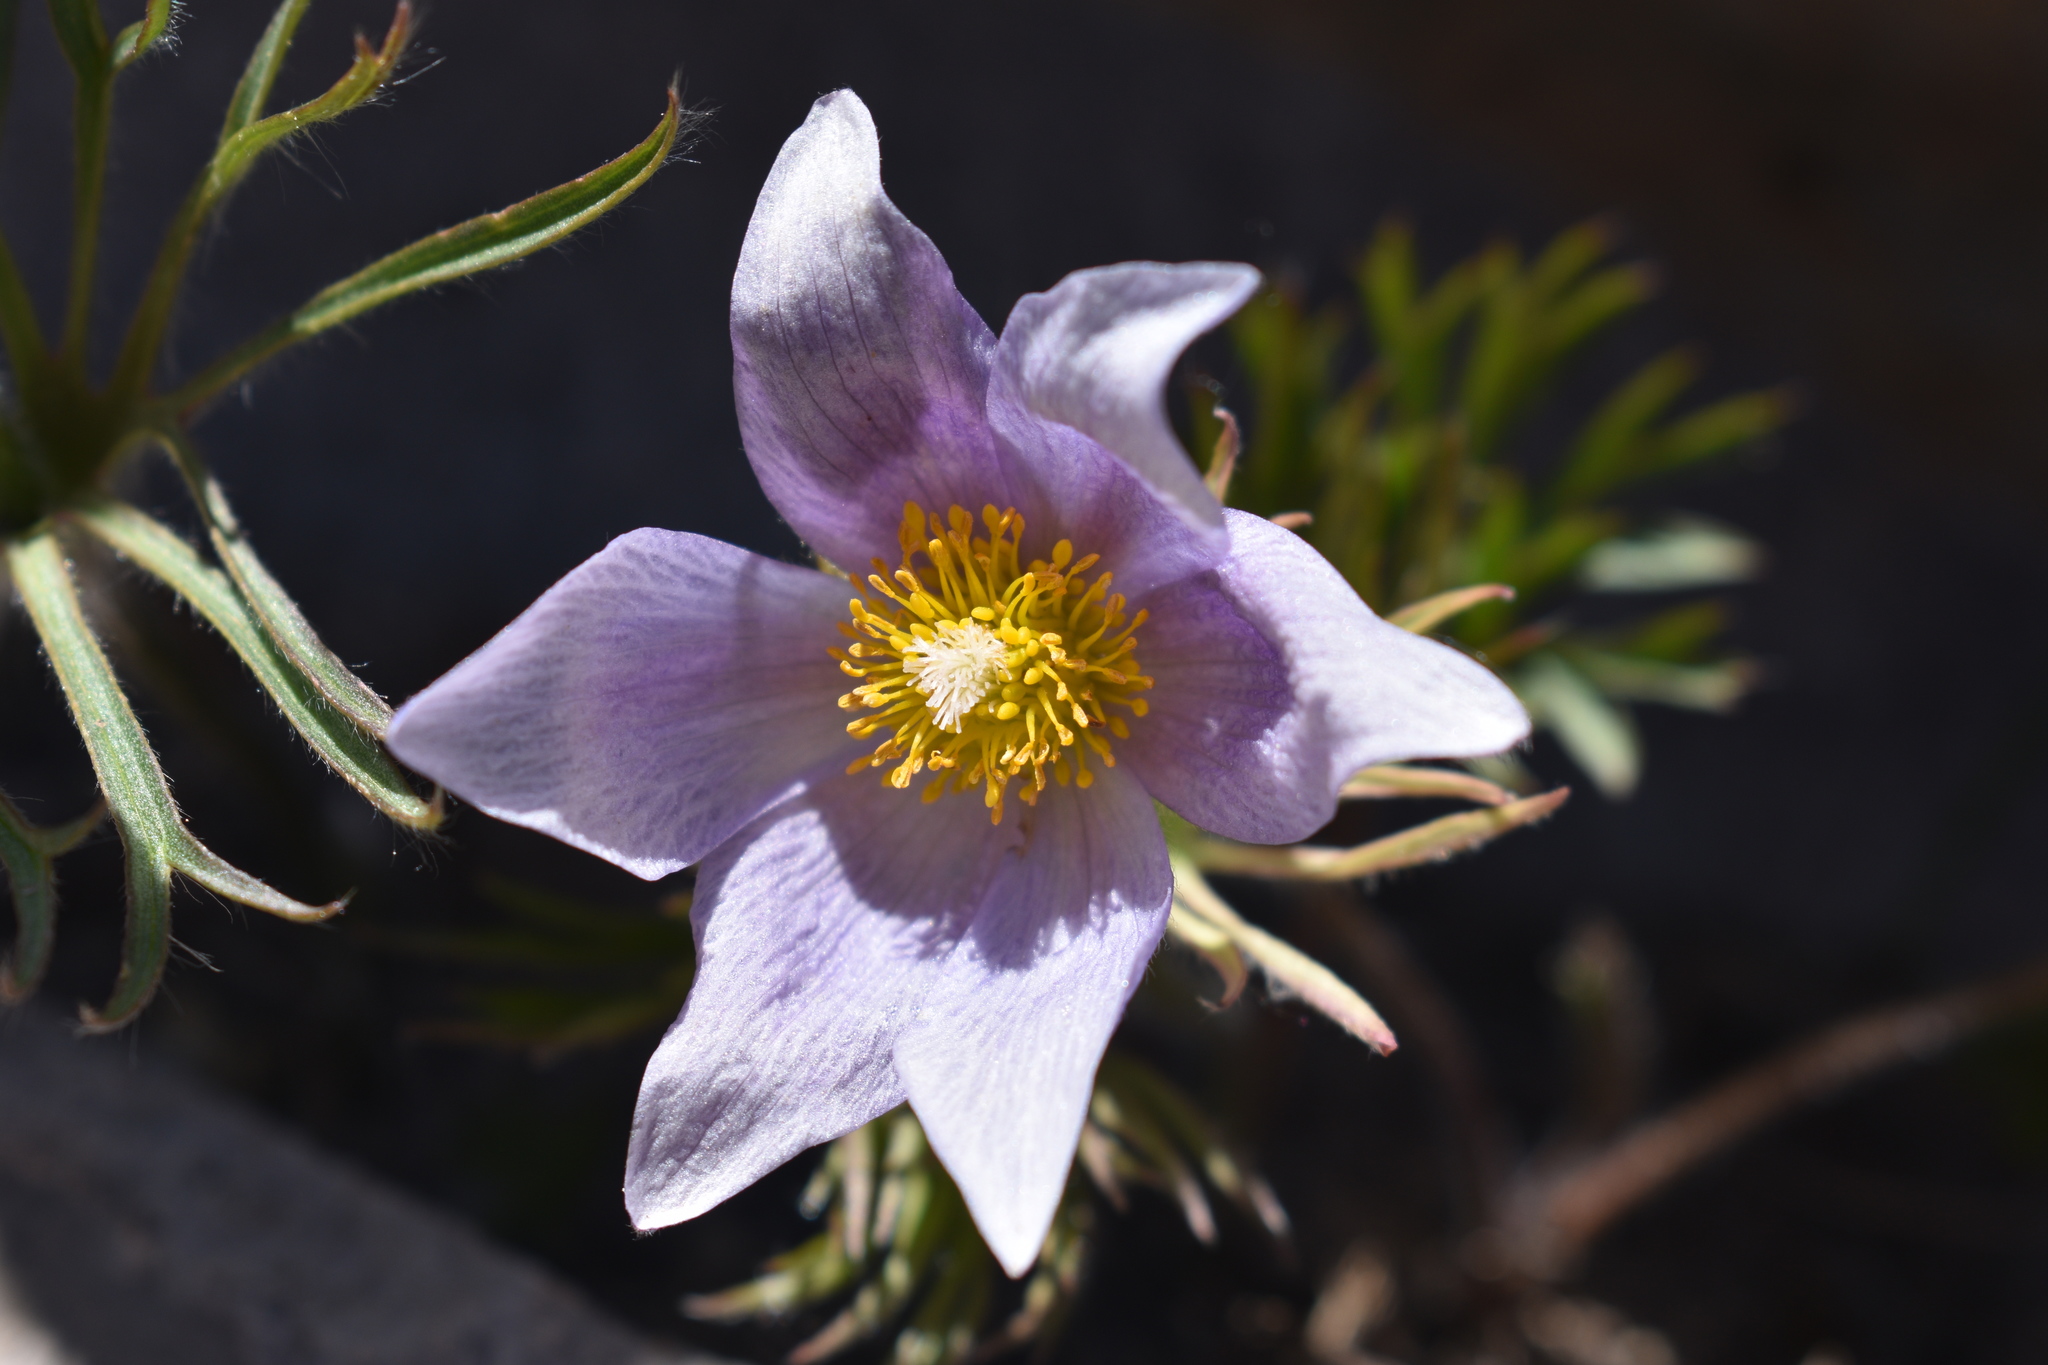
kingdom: Plantae
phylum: Tracheophyta
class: Magnoliopsida
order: Ranunculales
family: Ranunculaceae
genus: Pulsatilla
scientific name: Pulsatilla nuttalliana
